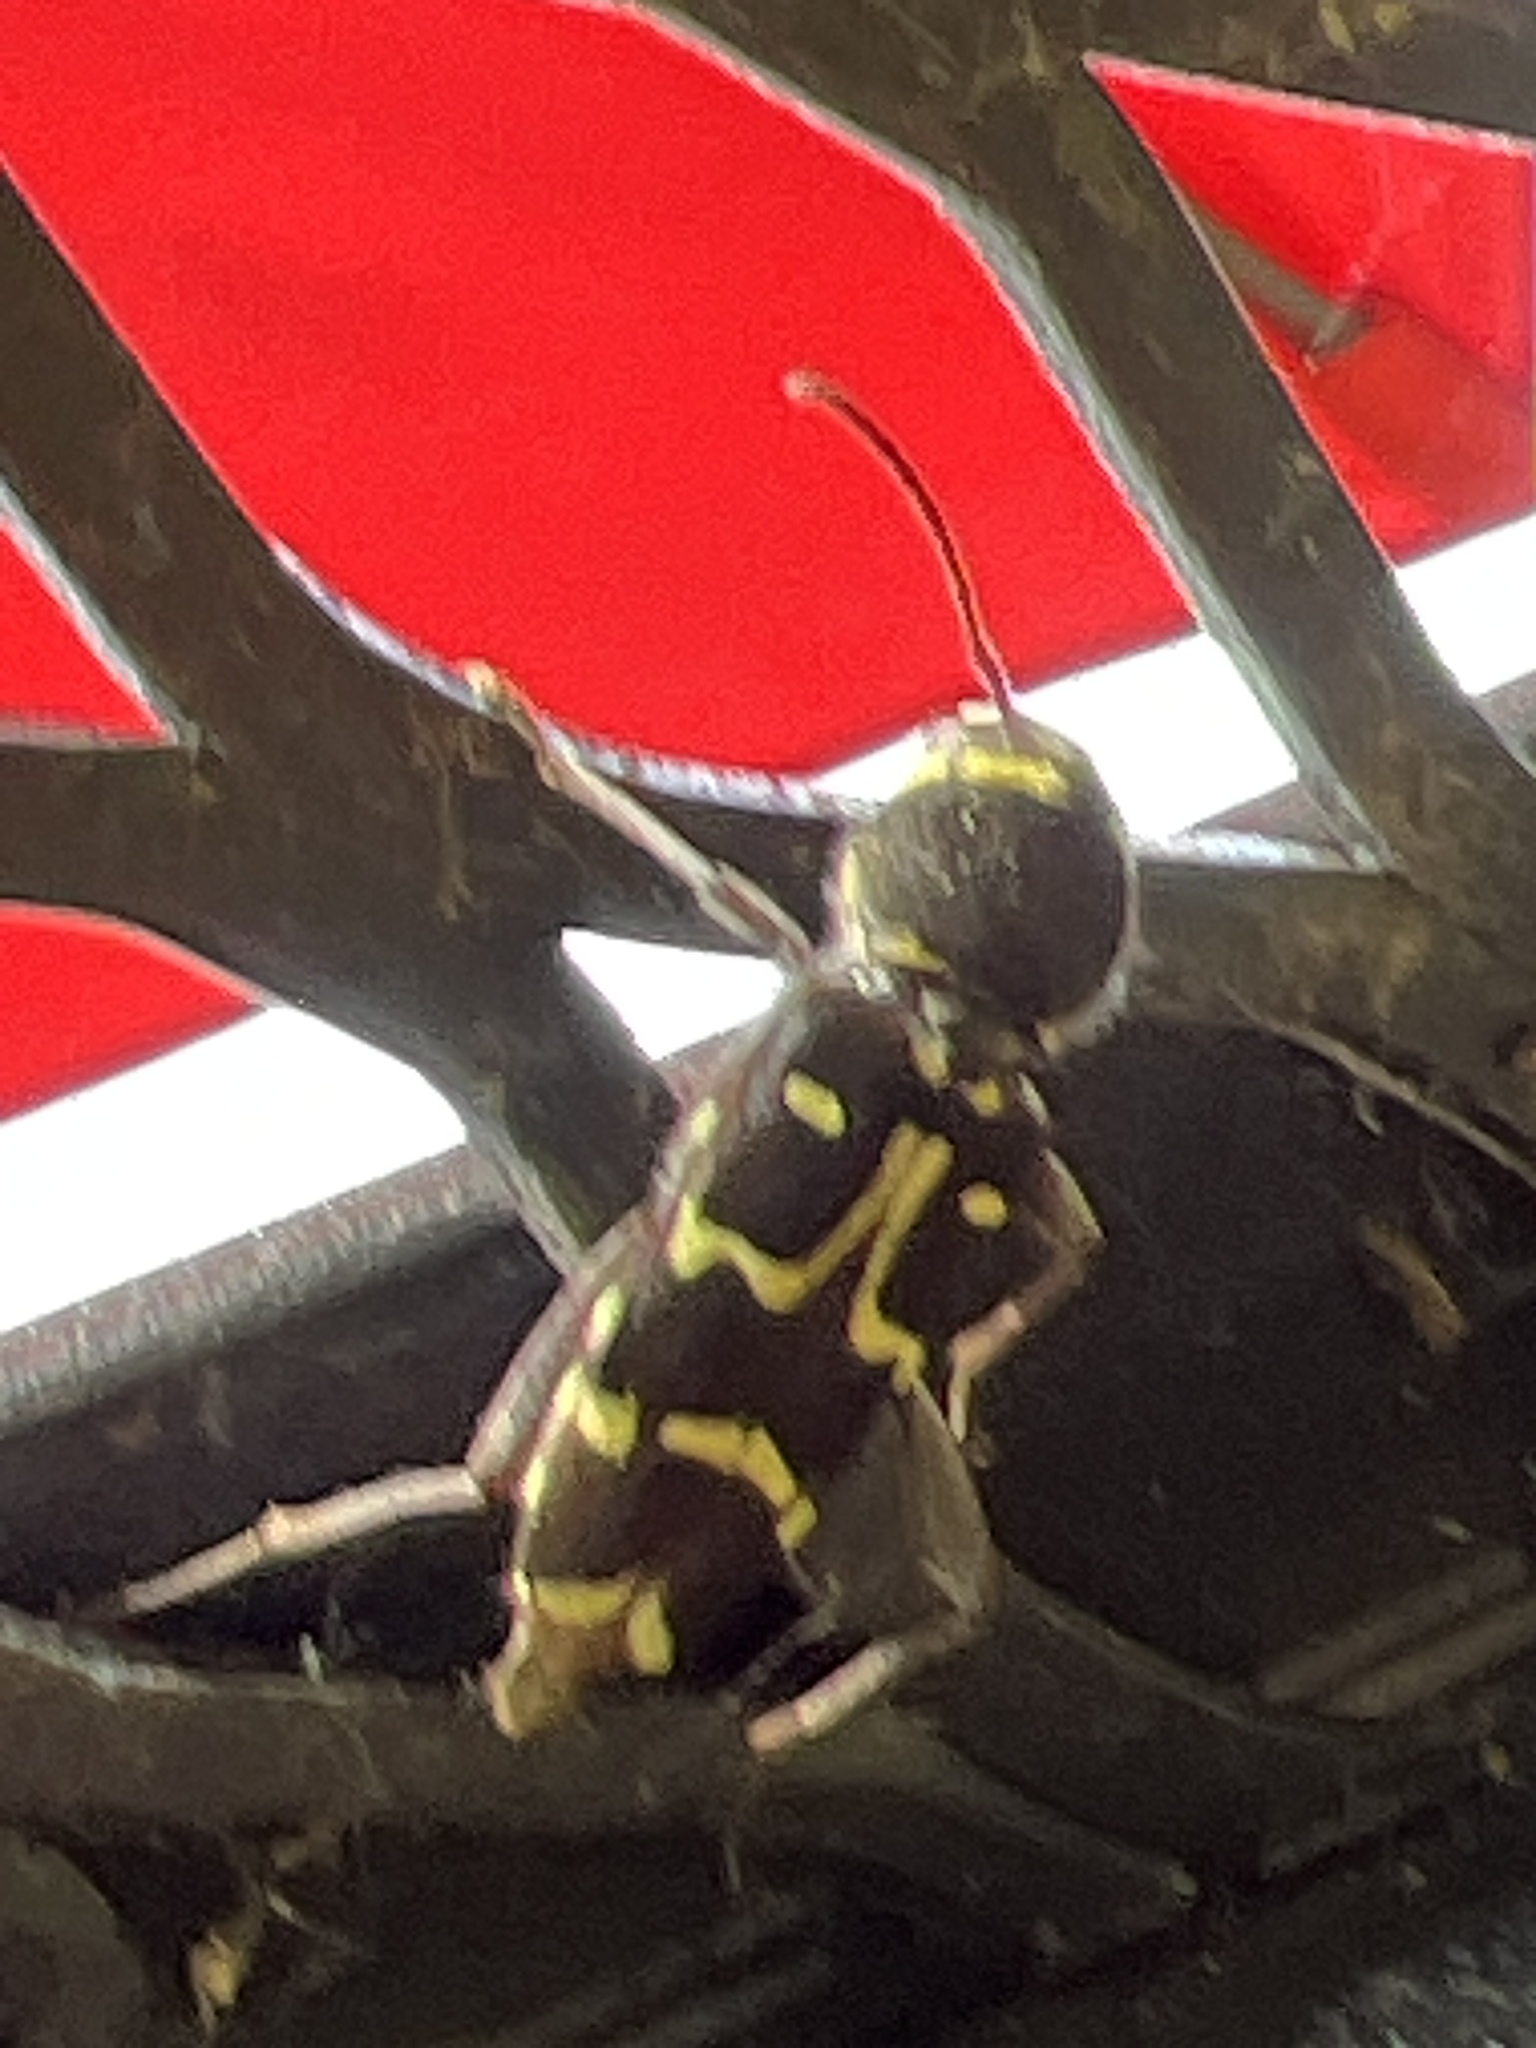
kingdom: Animalia
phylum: Arthropoda
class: Insecta
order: Coleoptera
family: Cerambycidae
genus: Xylotrechus
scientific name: Xylotrechus undulatus
